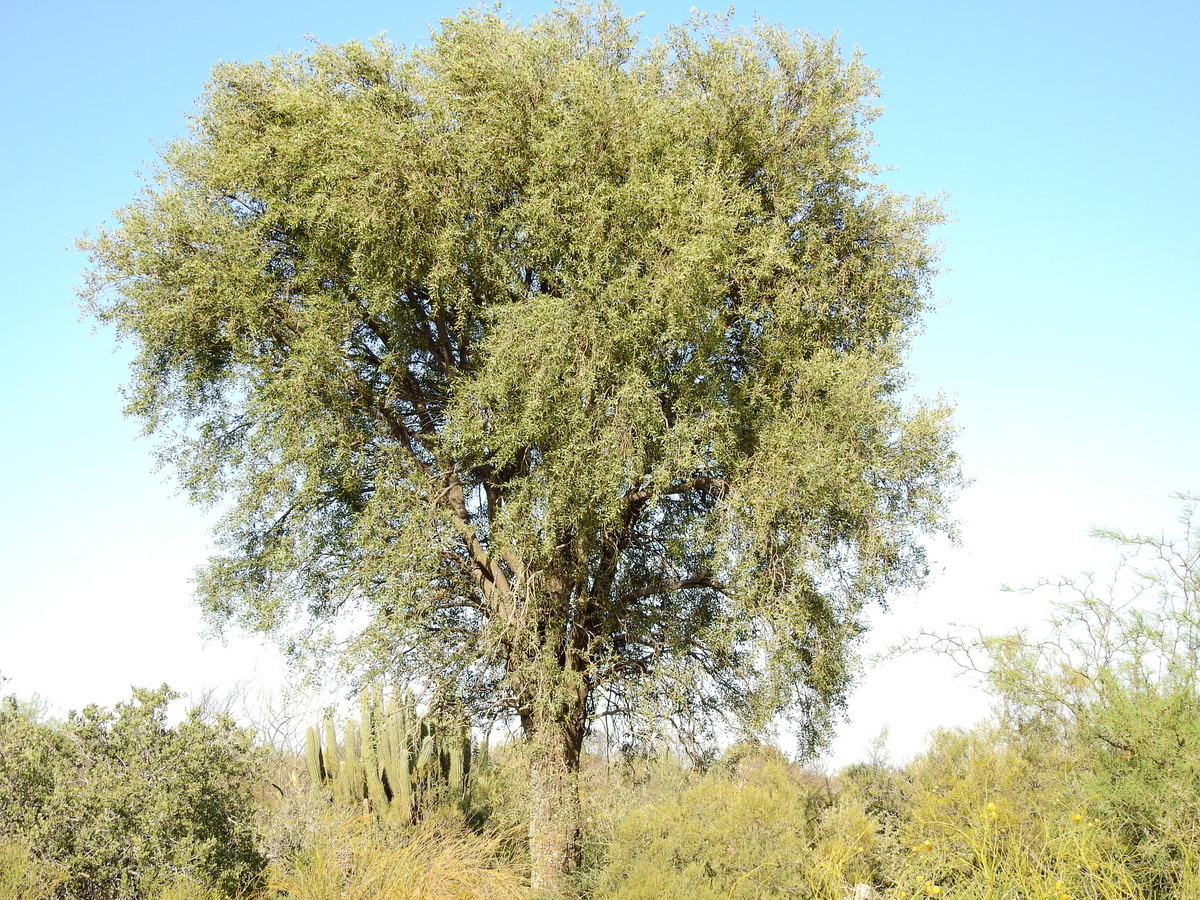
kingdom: Plantae
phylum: Tracheophyta
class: Magnoliopsida
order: Gentianales
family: Apocynaceae
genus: Aspidosperma
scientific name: Aspidosperma quebracho-blanco
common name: White quebracho
